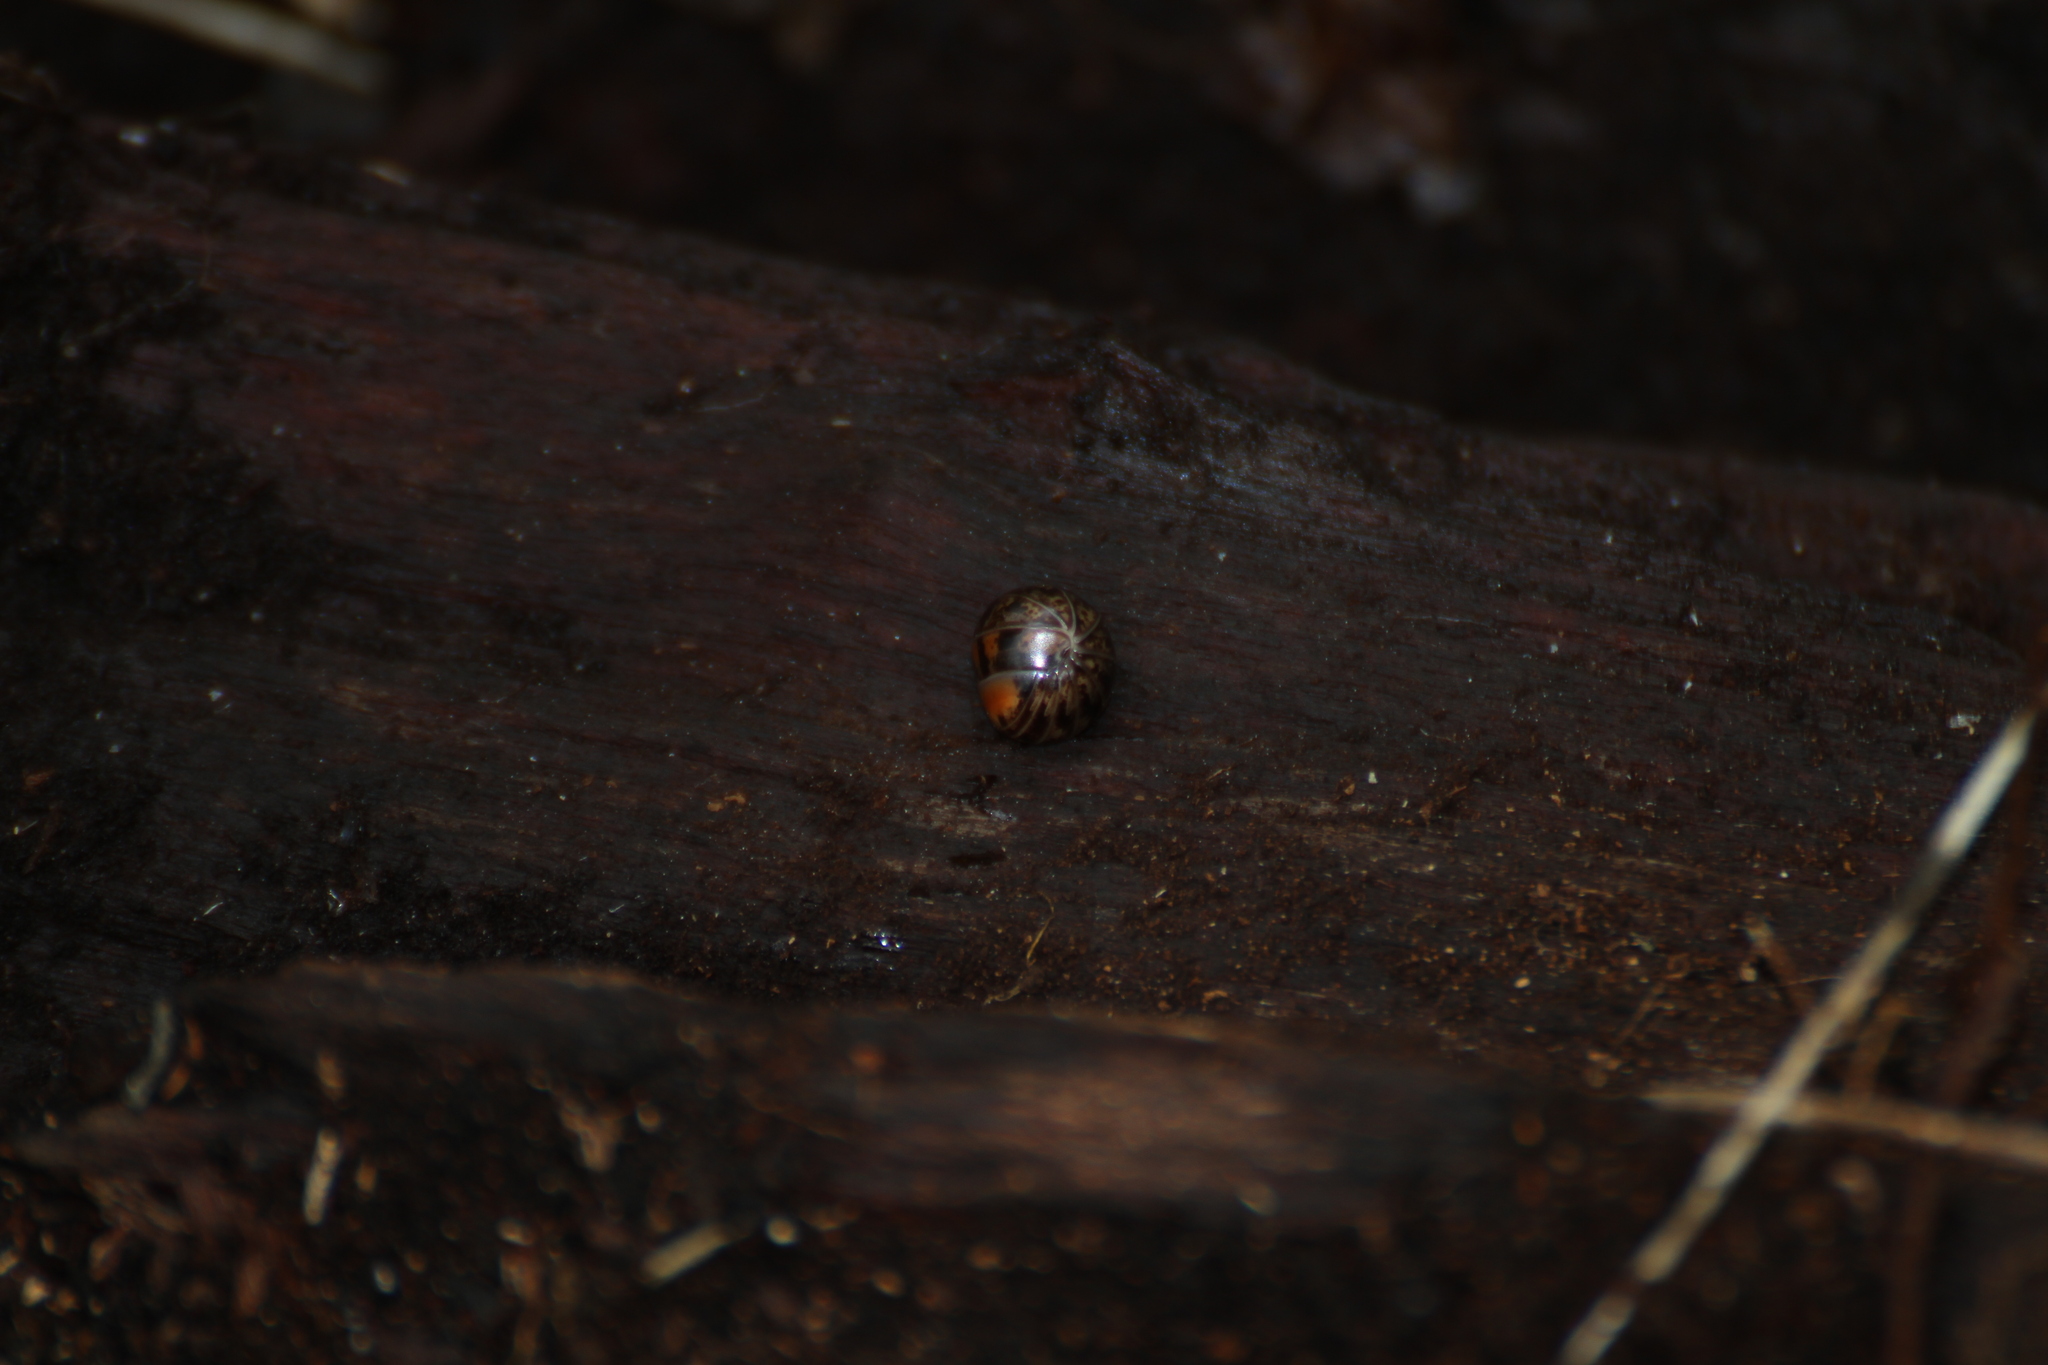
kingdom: Animalia
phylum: Arthropoda
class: Diplopoda
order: Glomerida
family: Glomeridae
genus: Glomeris
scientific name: Glomeris ligurica
